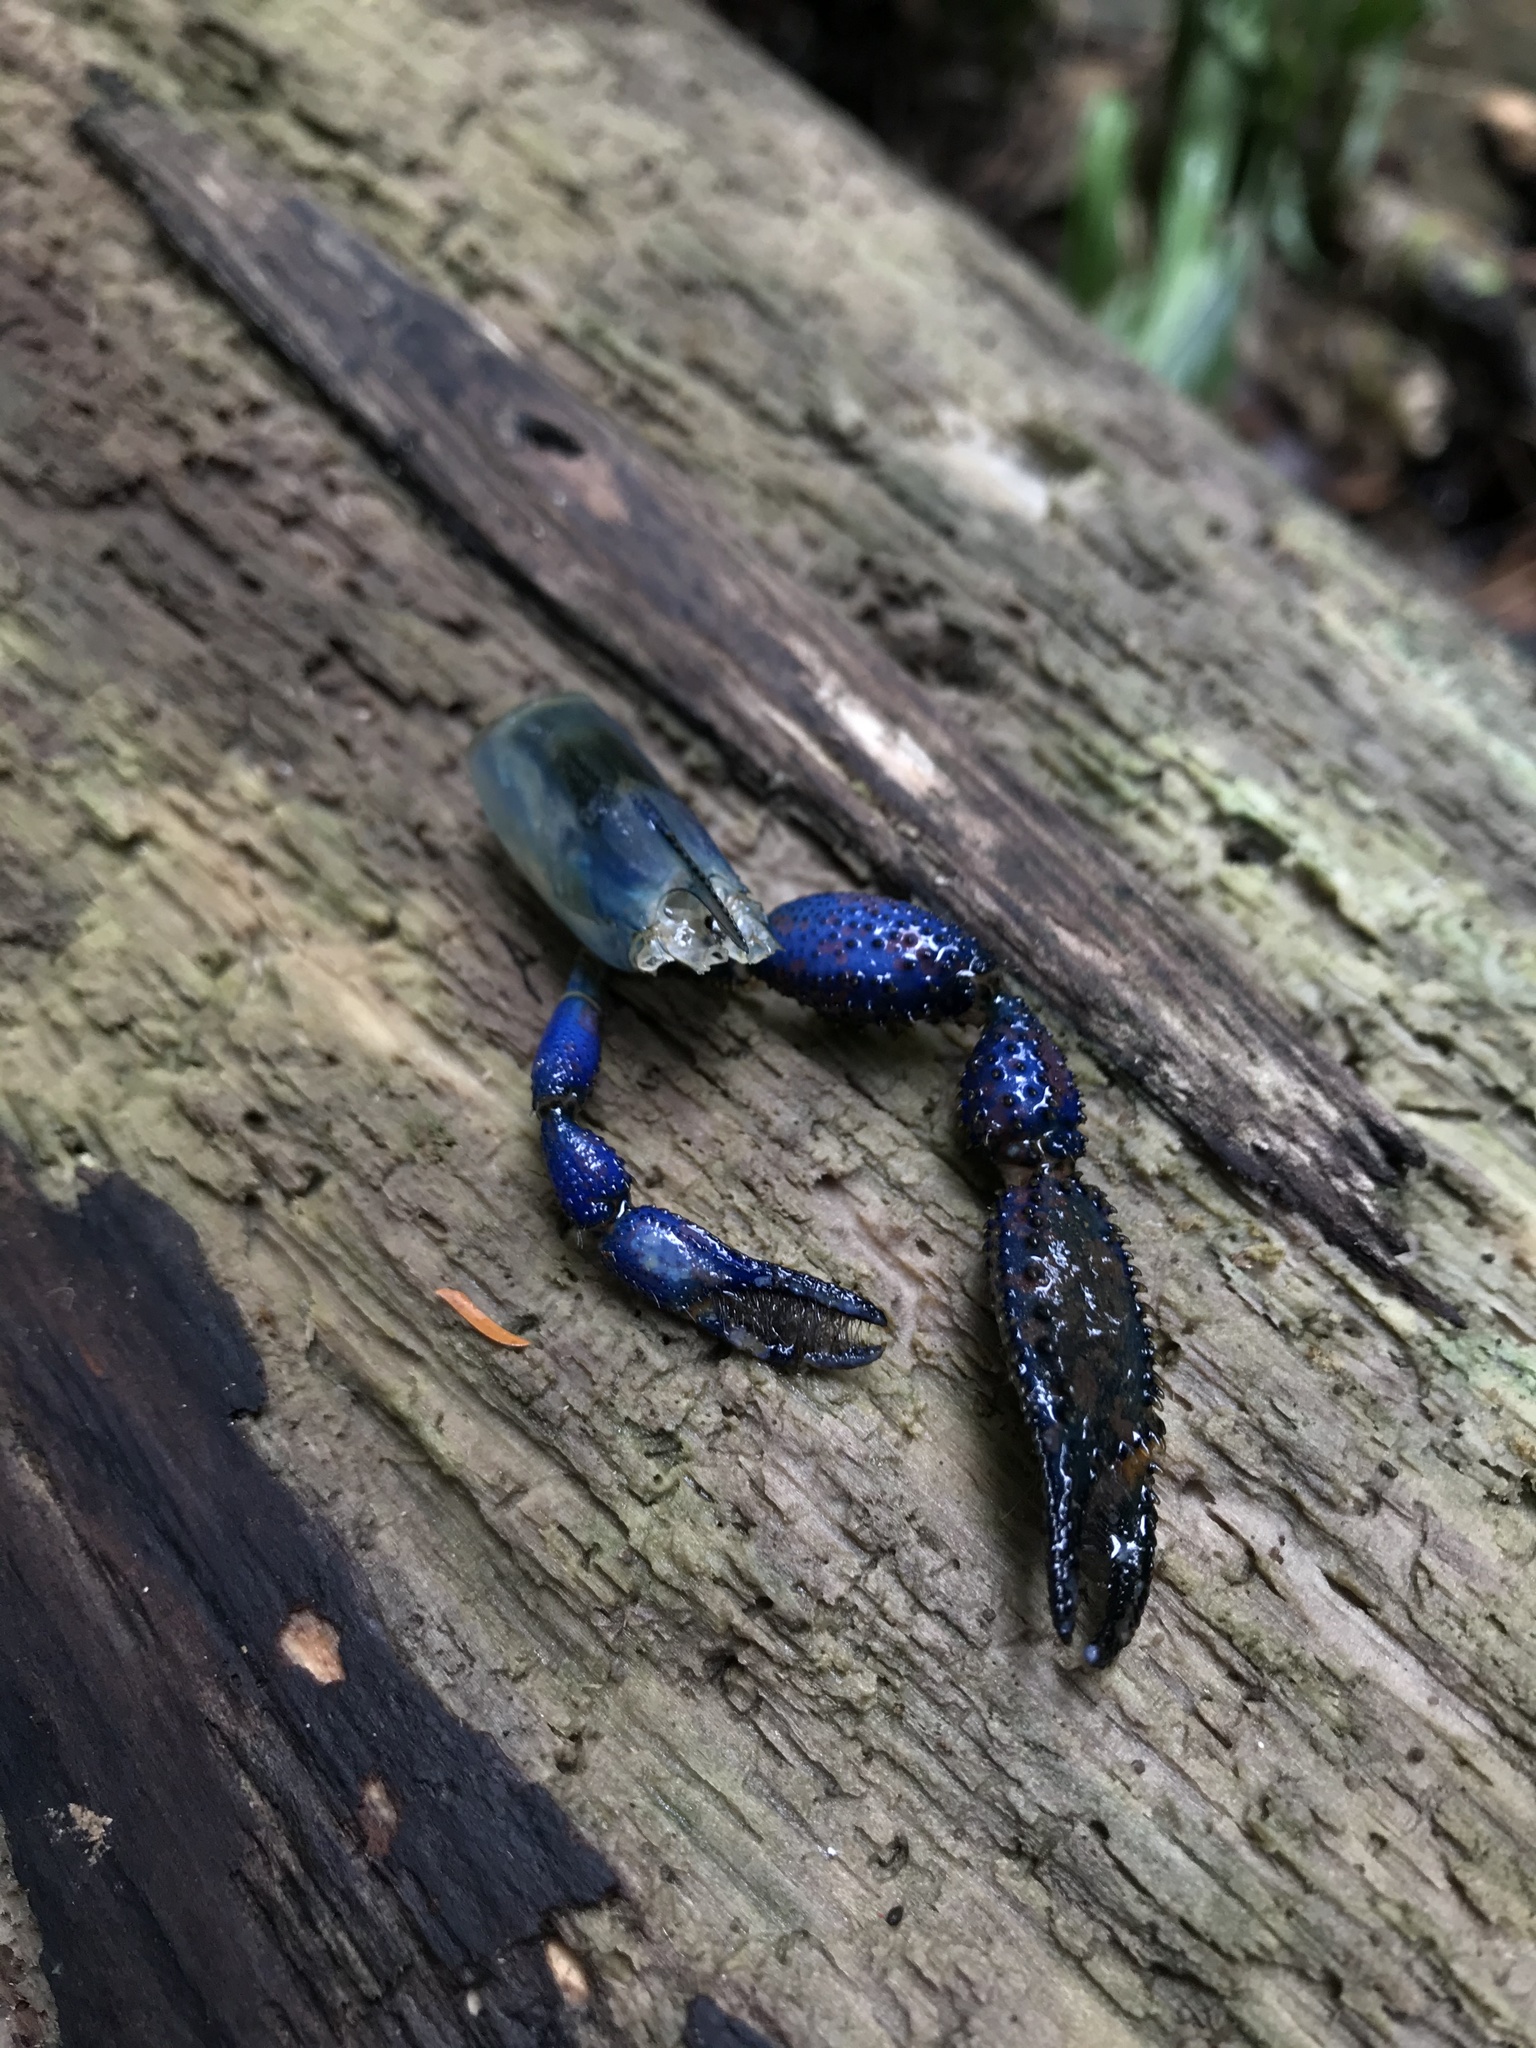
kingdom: Animalia
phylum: Arthropoda
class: Malacostraca
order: Decapoda
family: Palaemonidae
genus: Macrobrachium
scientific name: Macrobrachium hancocki
